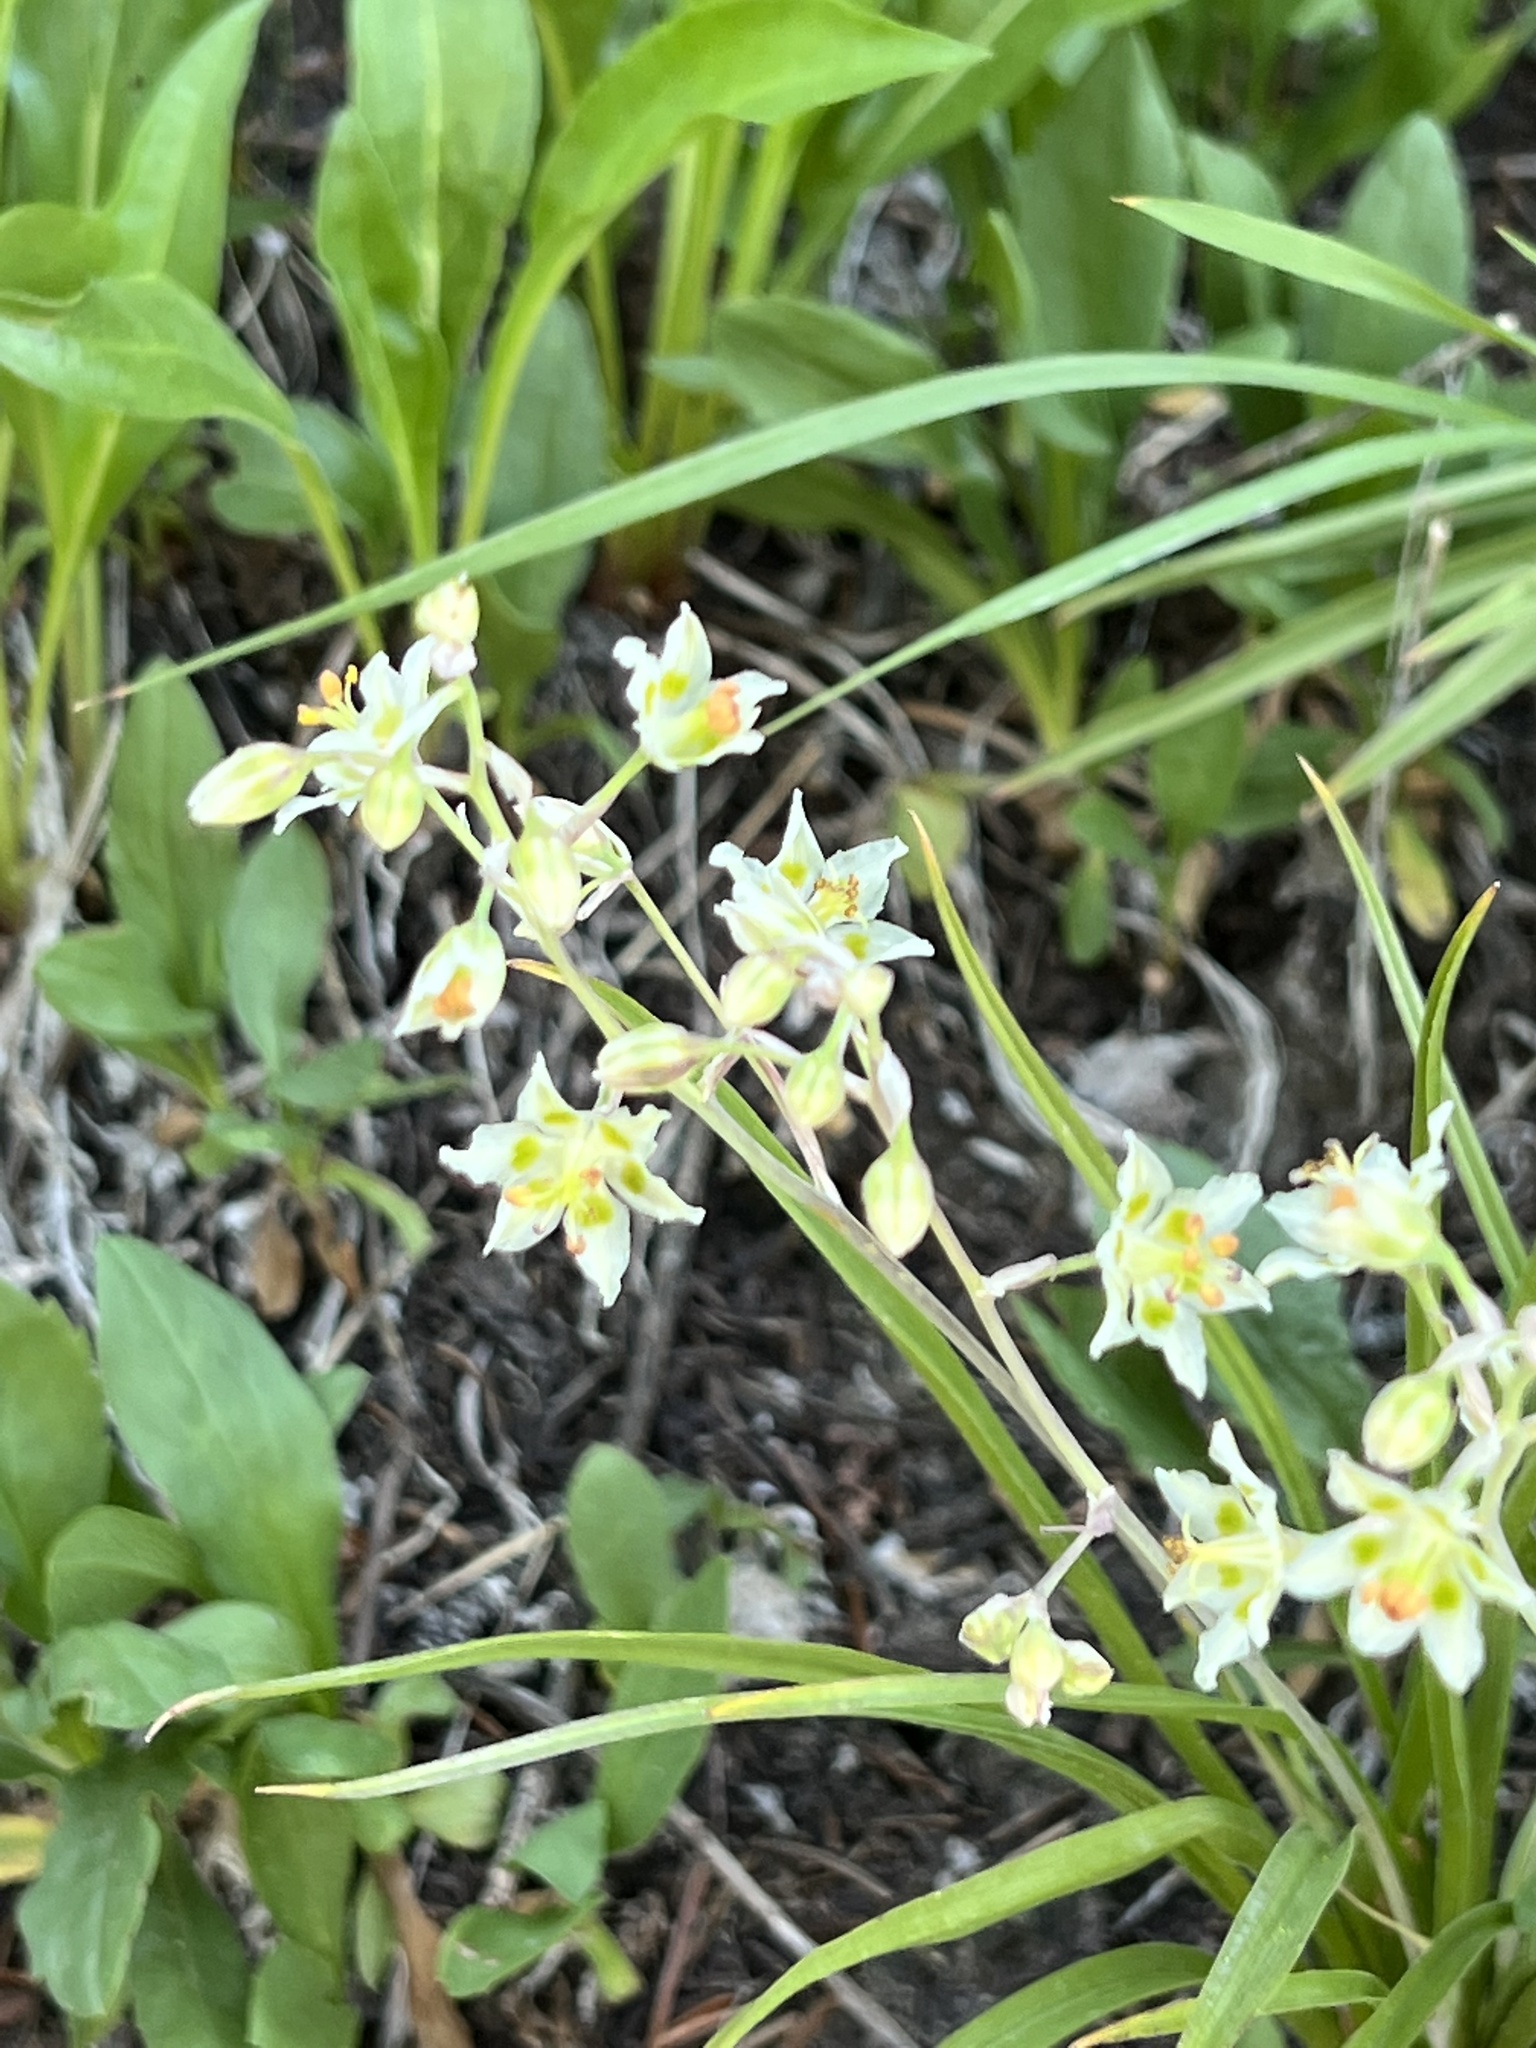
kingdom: Plantae
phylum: Tracheophyta
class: Liliopsida
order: Liliales
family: Melanthiaceae
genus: Anticlea
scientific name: Anticlea elegans
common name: Mountain death camas
